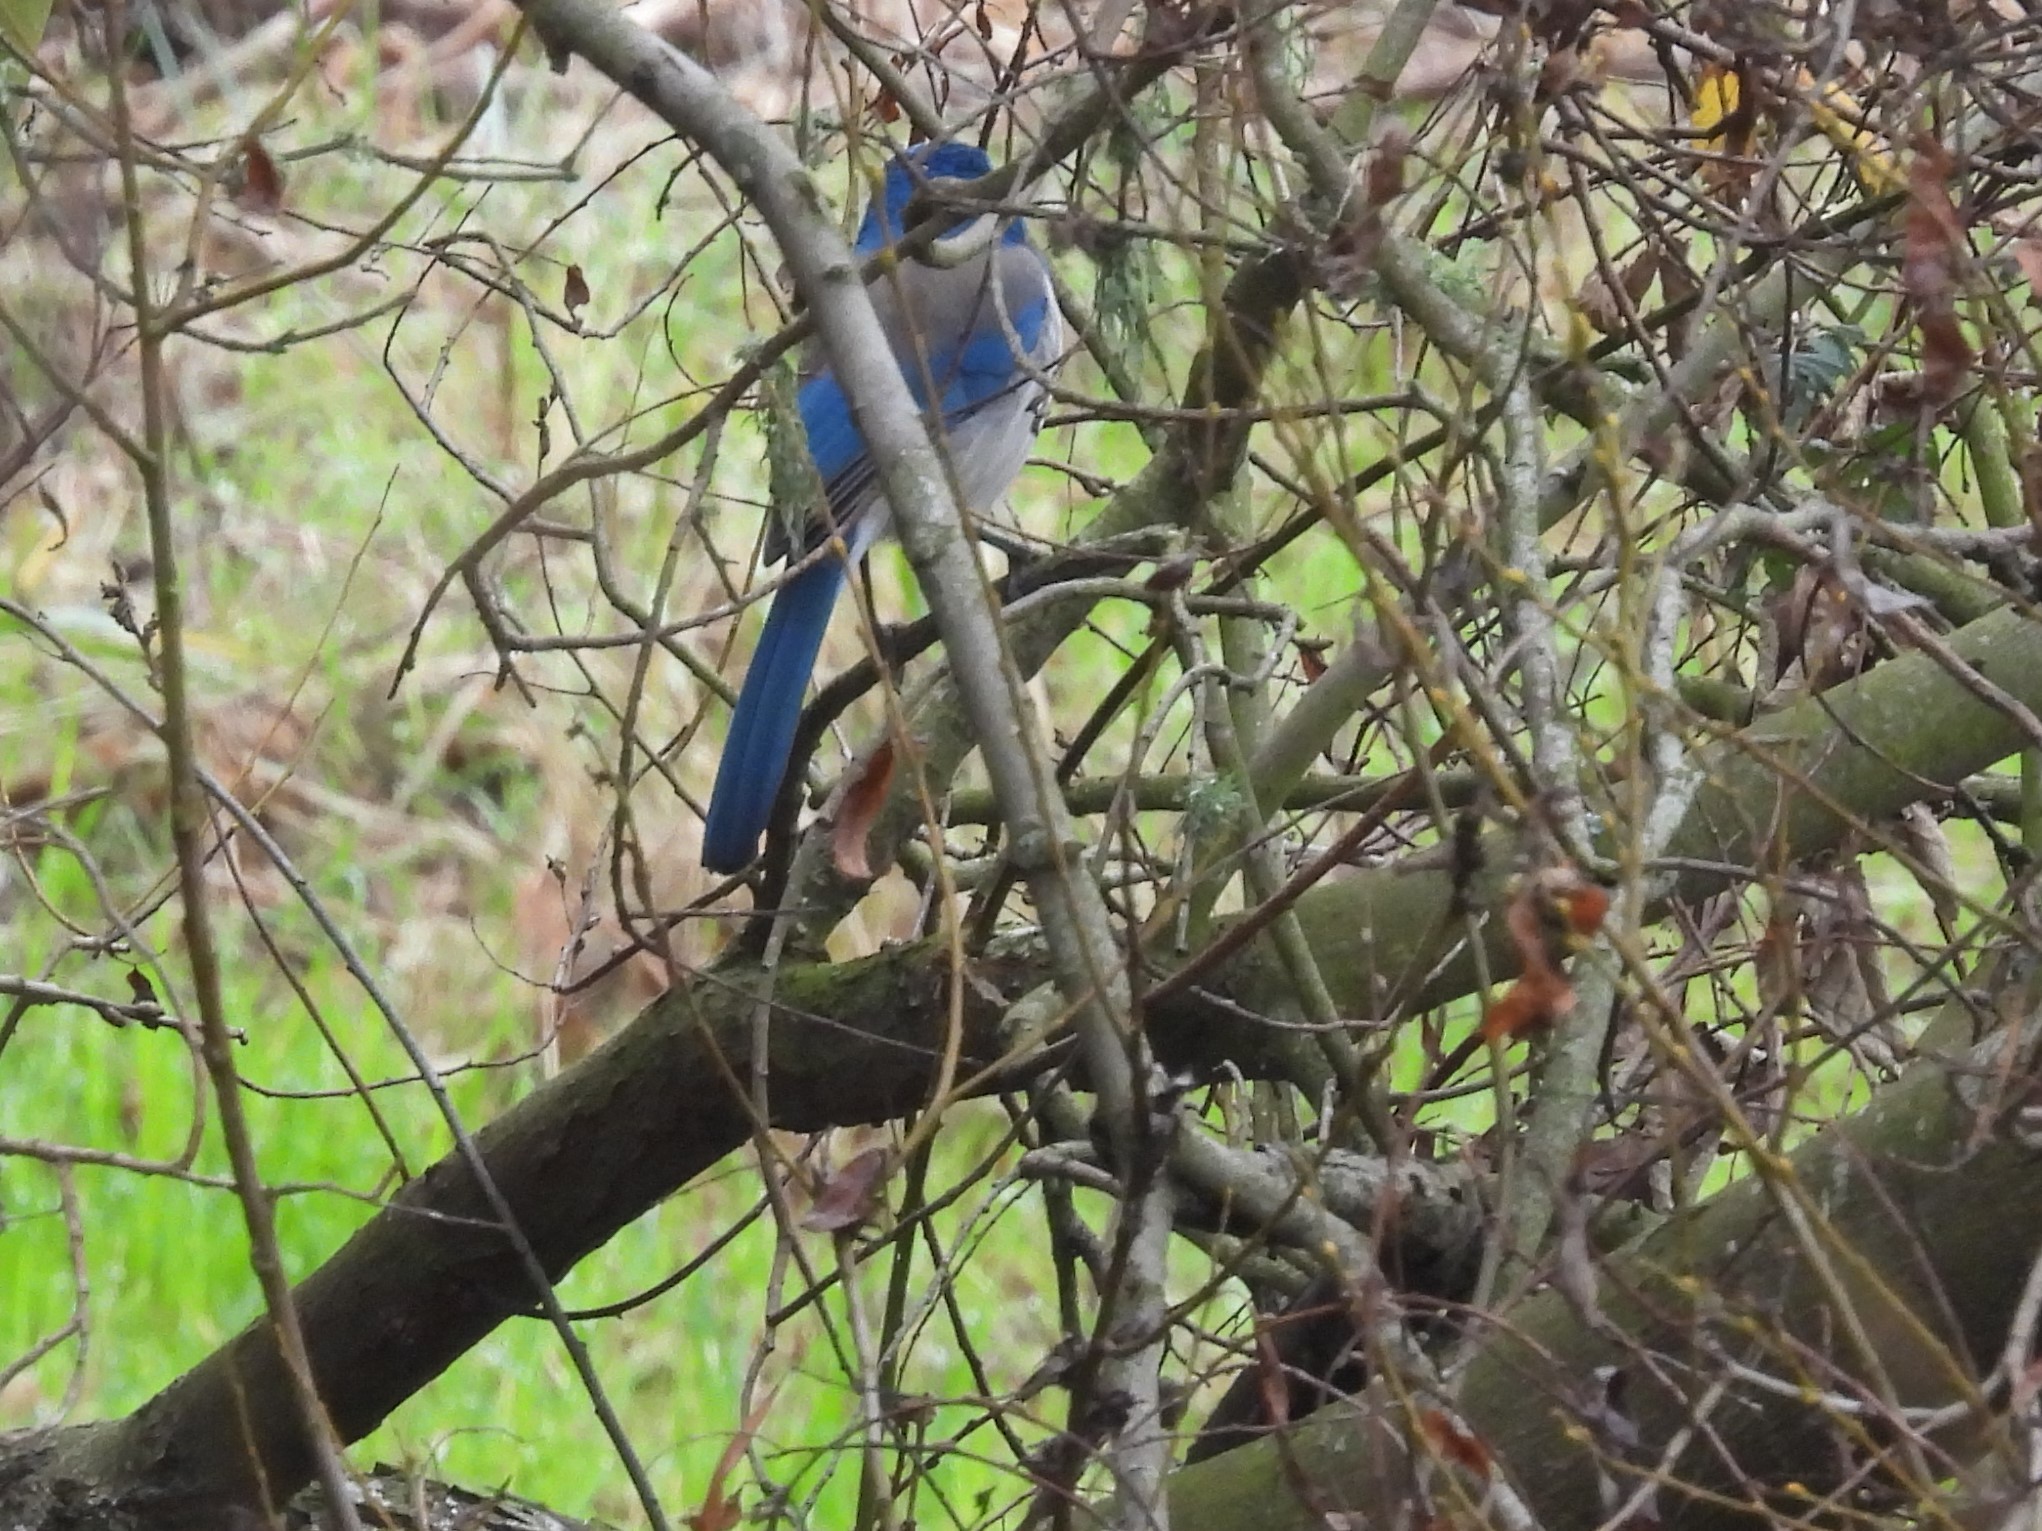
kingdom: Animalia
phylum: Chordata
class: Aves
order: Passeriformes
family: Corvidae
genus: Aphelocoma
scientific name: Aphelocoma californica
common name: California scrub-jay
